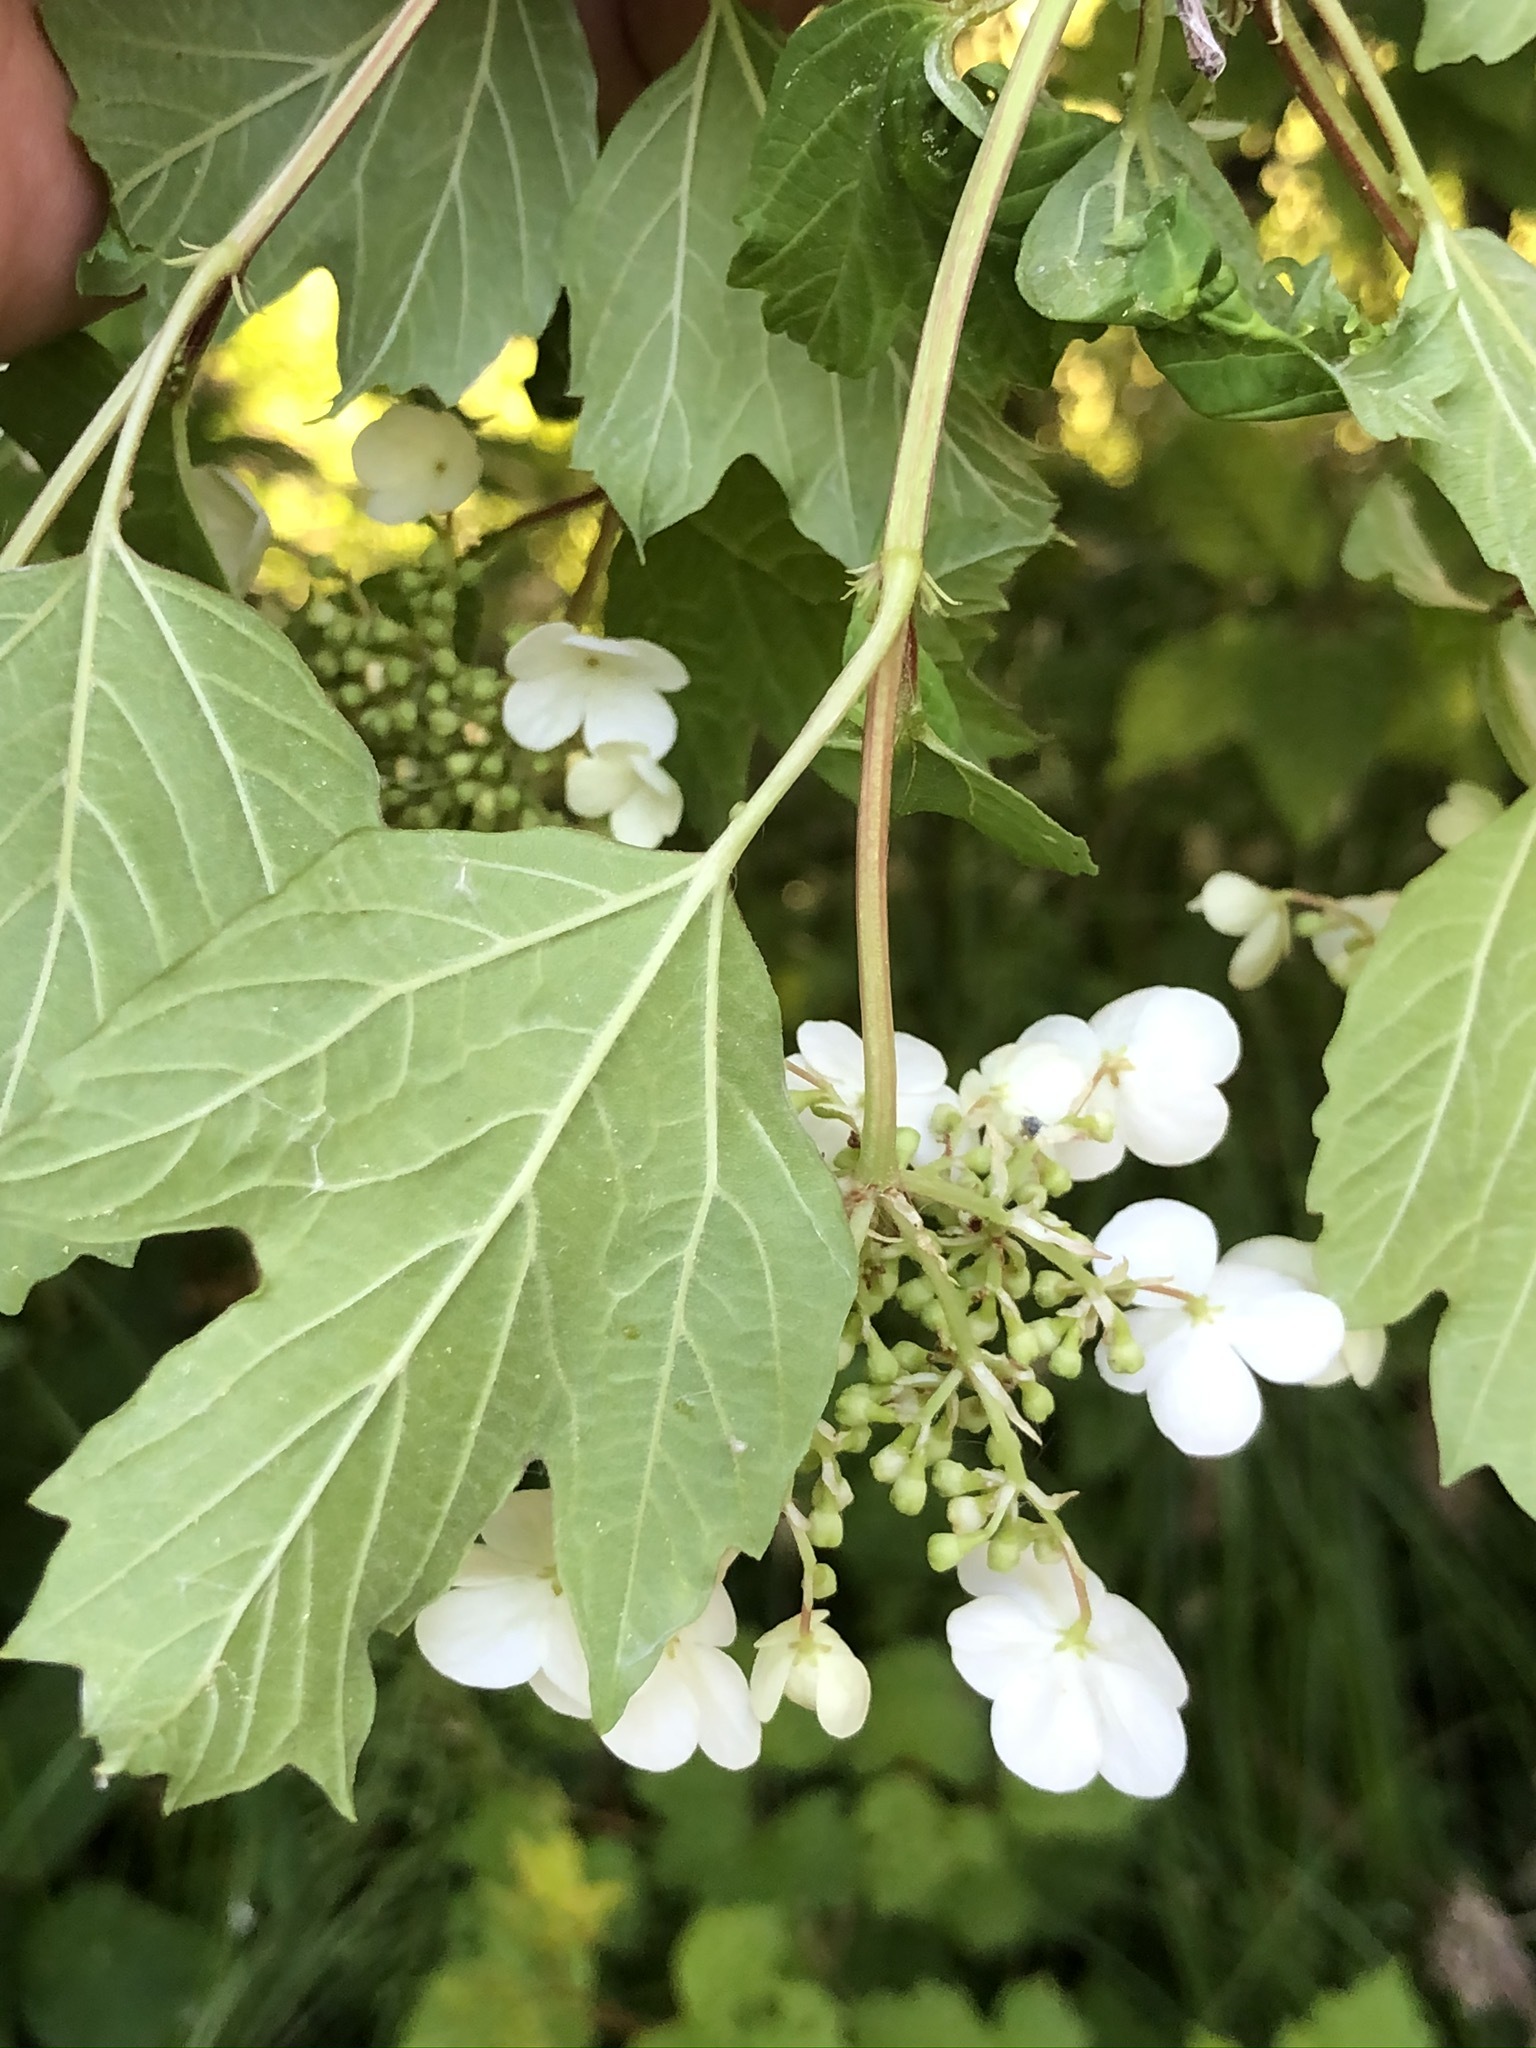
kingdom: Plantae
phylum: Tracheophyta
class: Magnoliopsida
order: Dipsacales
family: Viburnaceae
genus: Viburnum
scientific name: Viburnum opulus
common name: Guelder-rose
